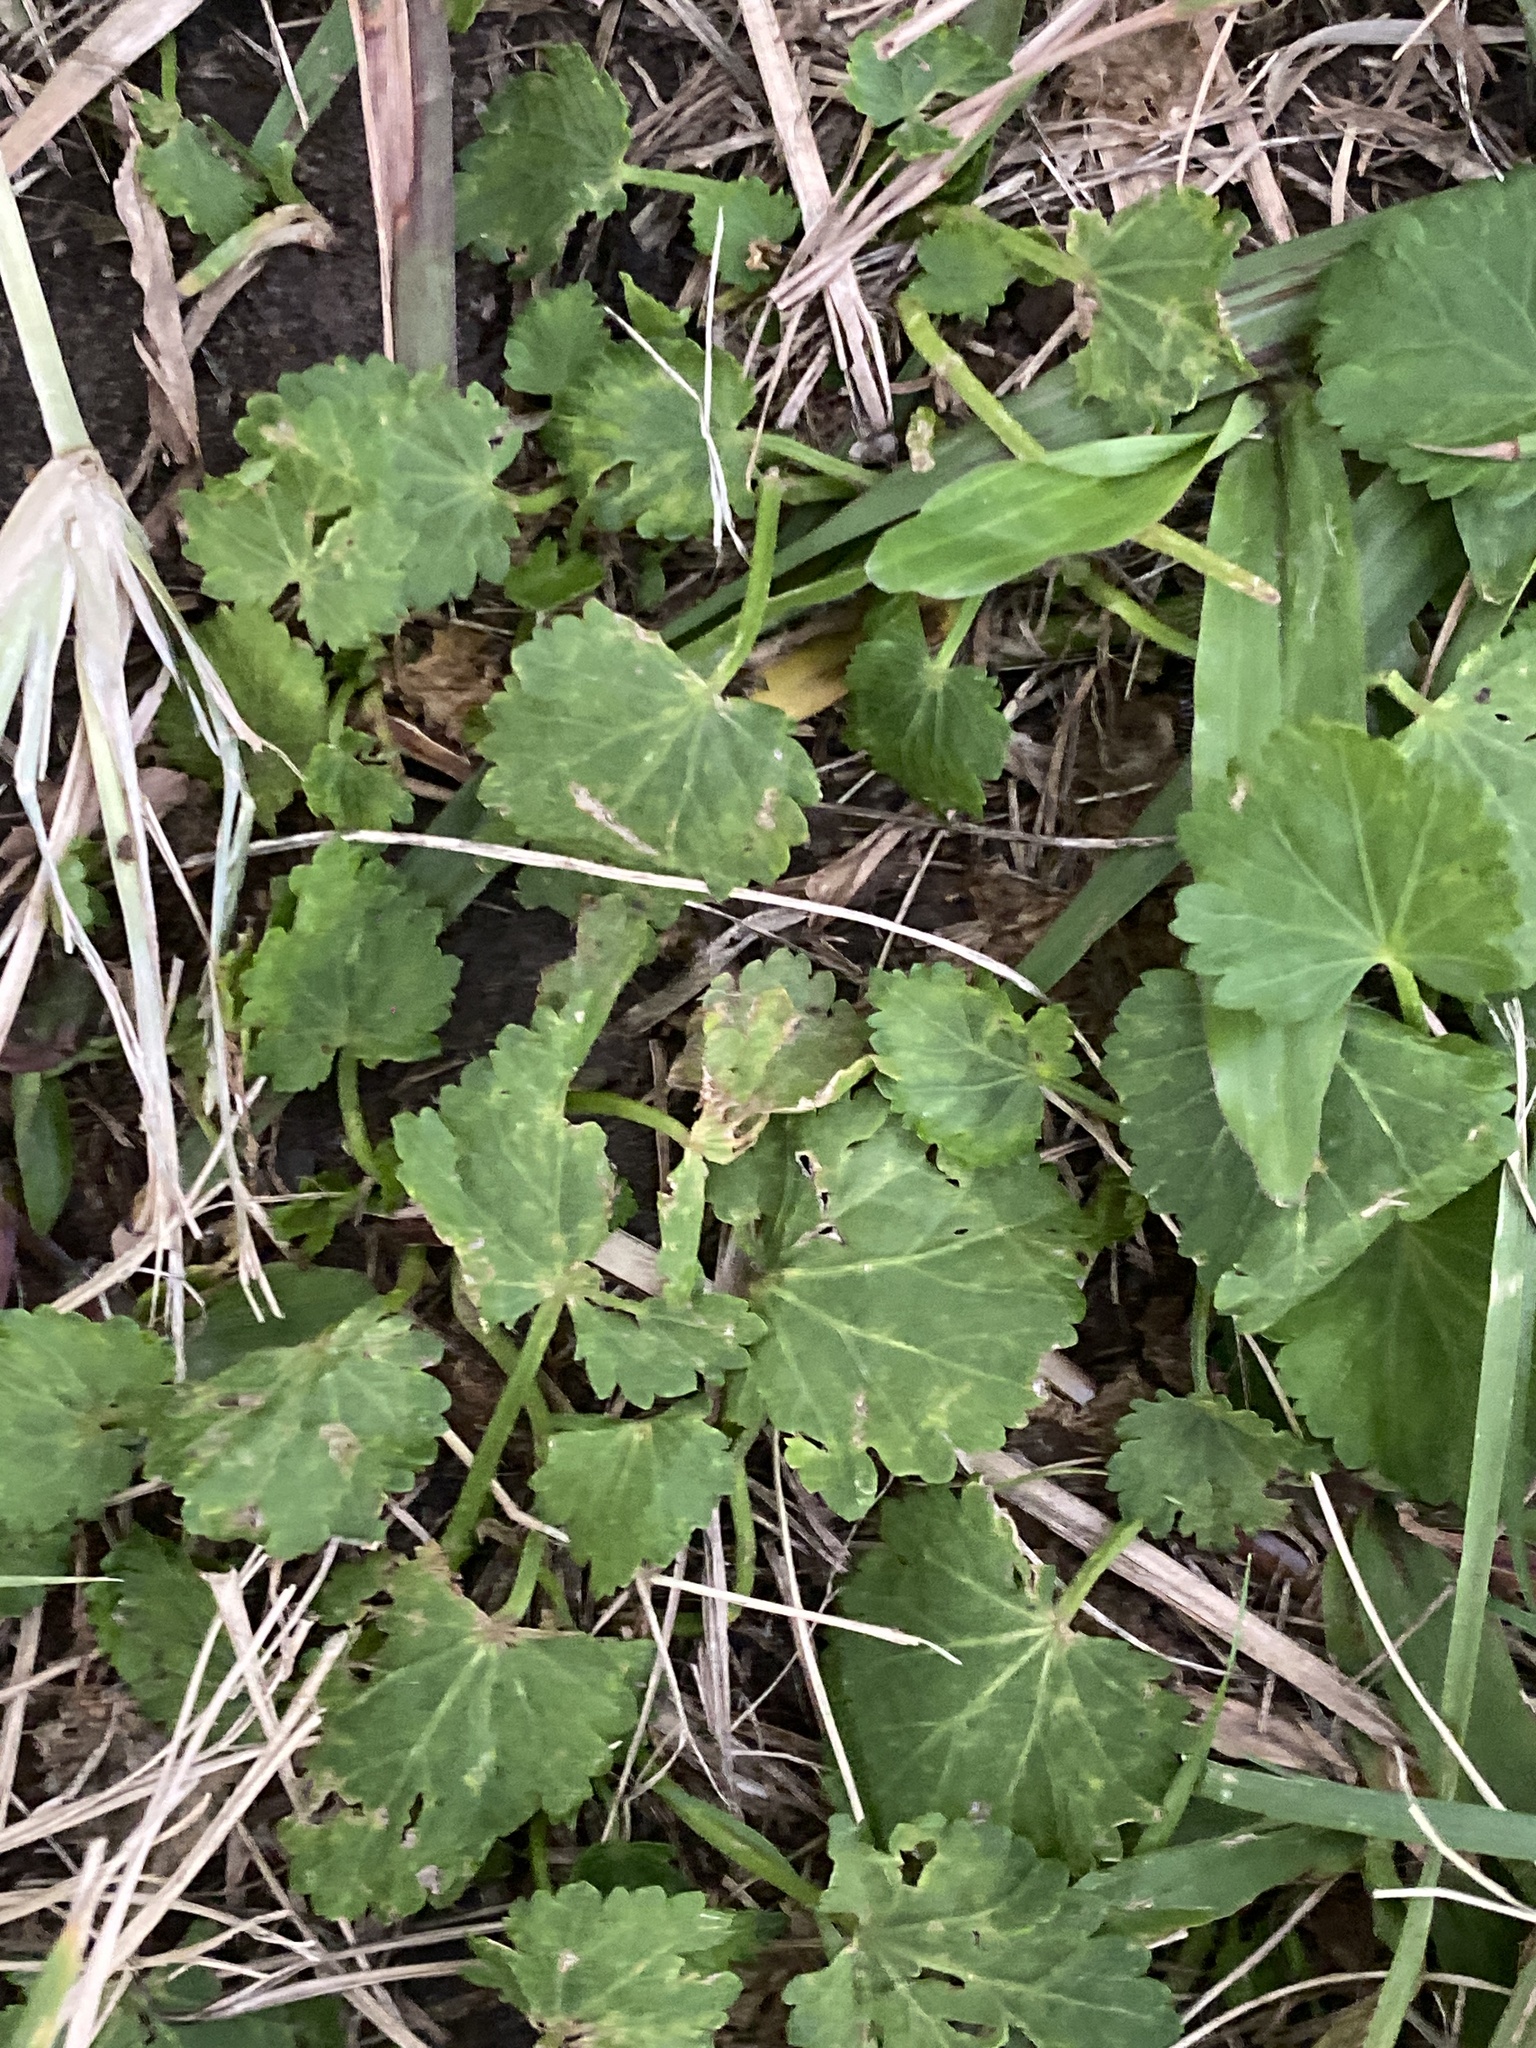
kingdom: Plantae
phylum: Tracheophyta
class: Magnoliopsida
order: Malvales
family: Malvaceae
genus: Modiola
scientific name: Modiola caroliniana
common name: Carolina bristlemallow
